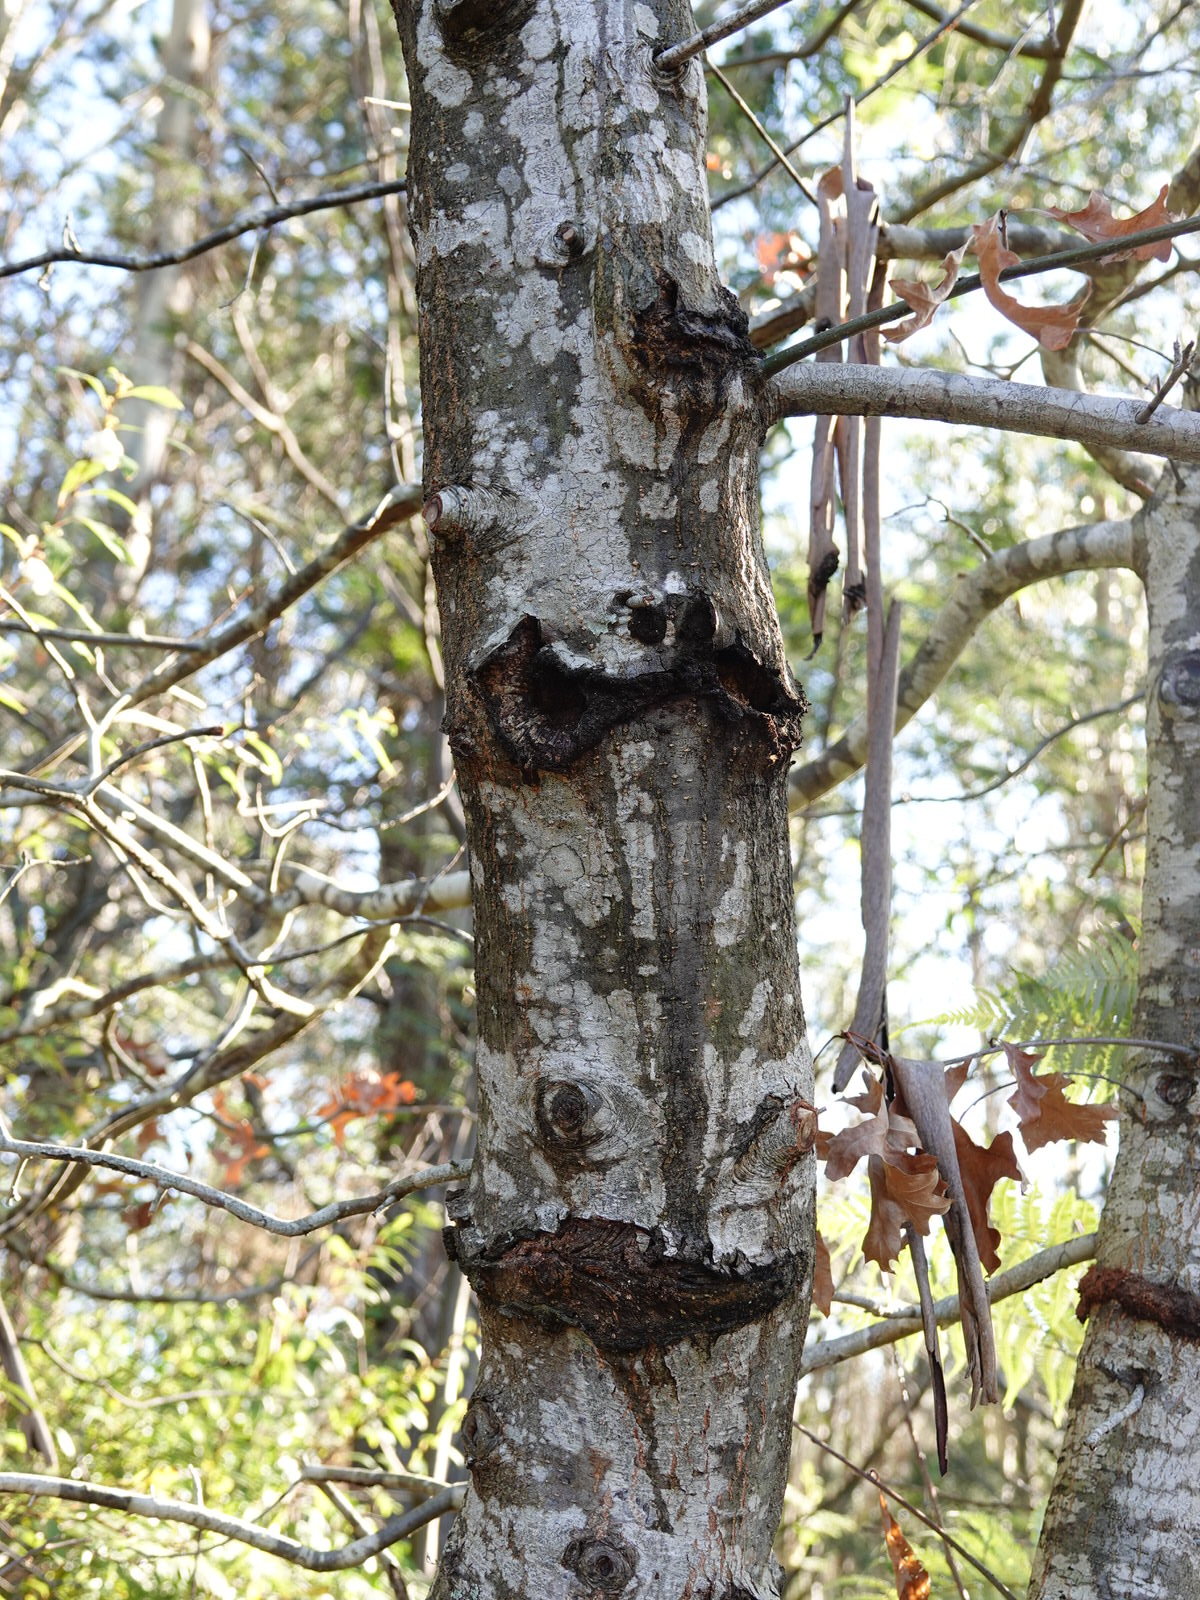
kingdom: Animalia
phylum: Arthropoda
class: Insecta
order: Lepidoptera
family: Hepialidae
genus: Aenetus
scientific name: Aenetus virescens
